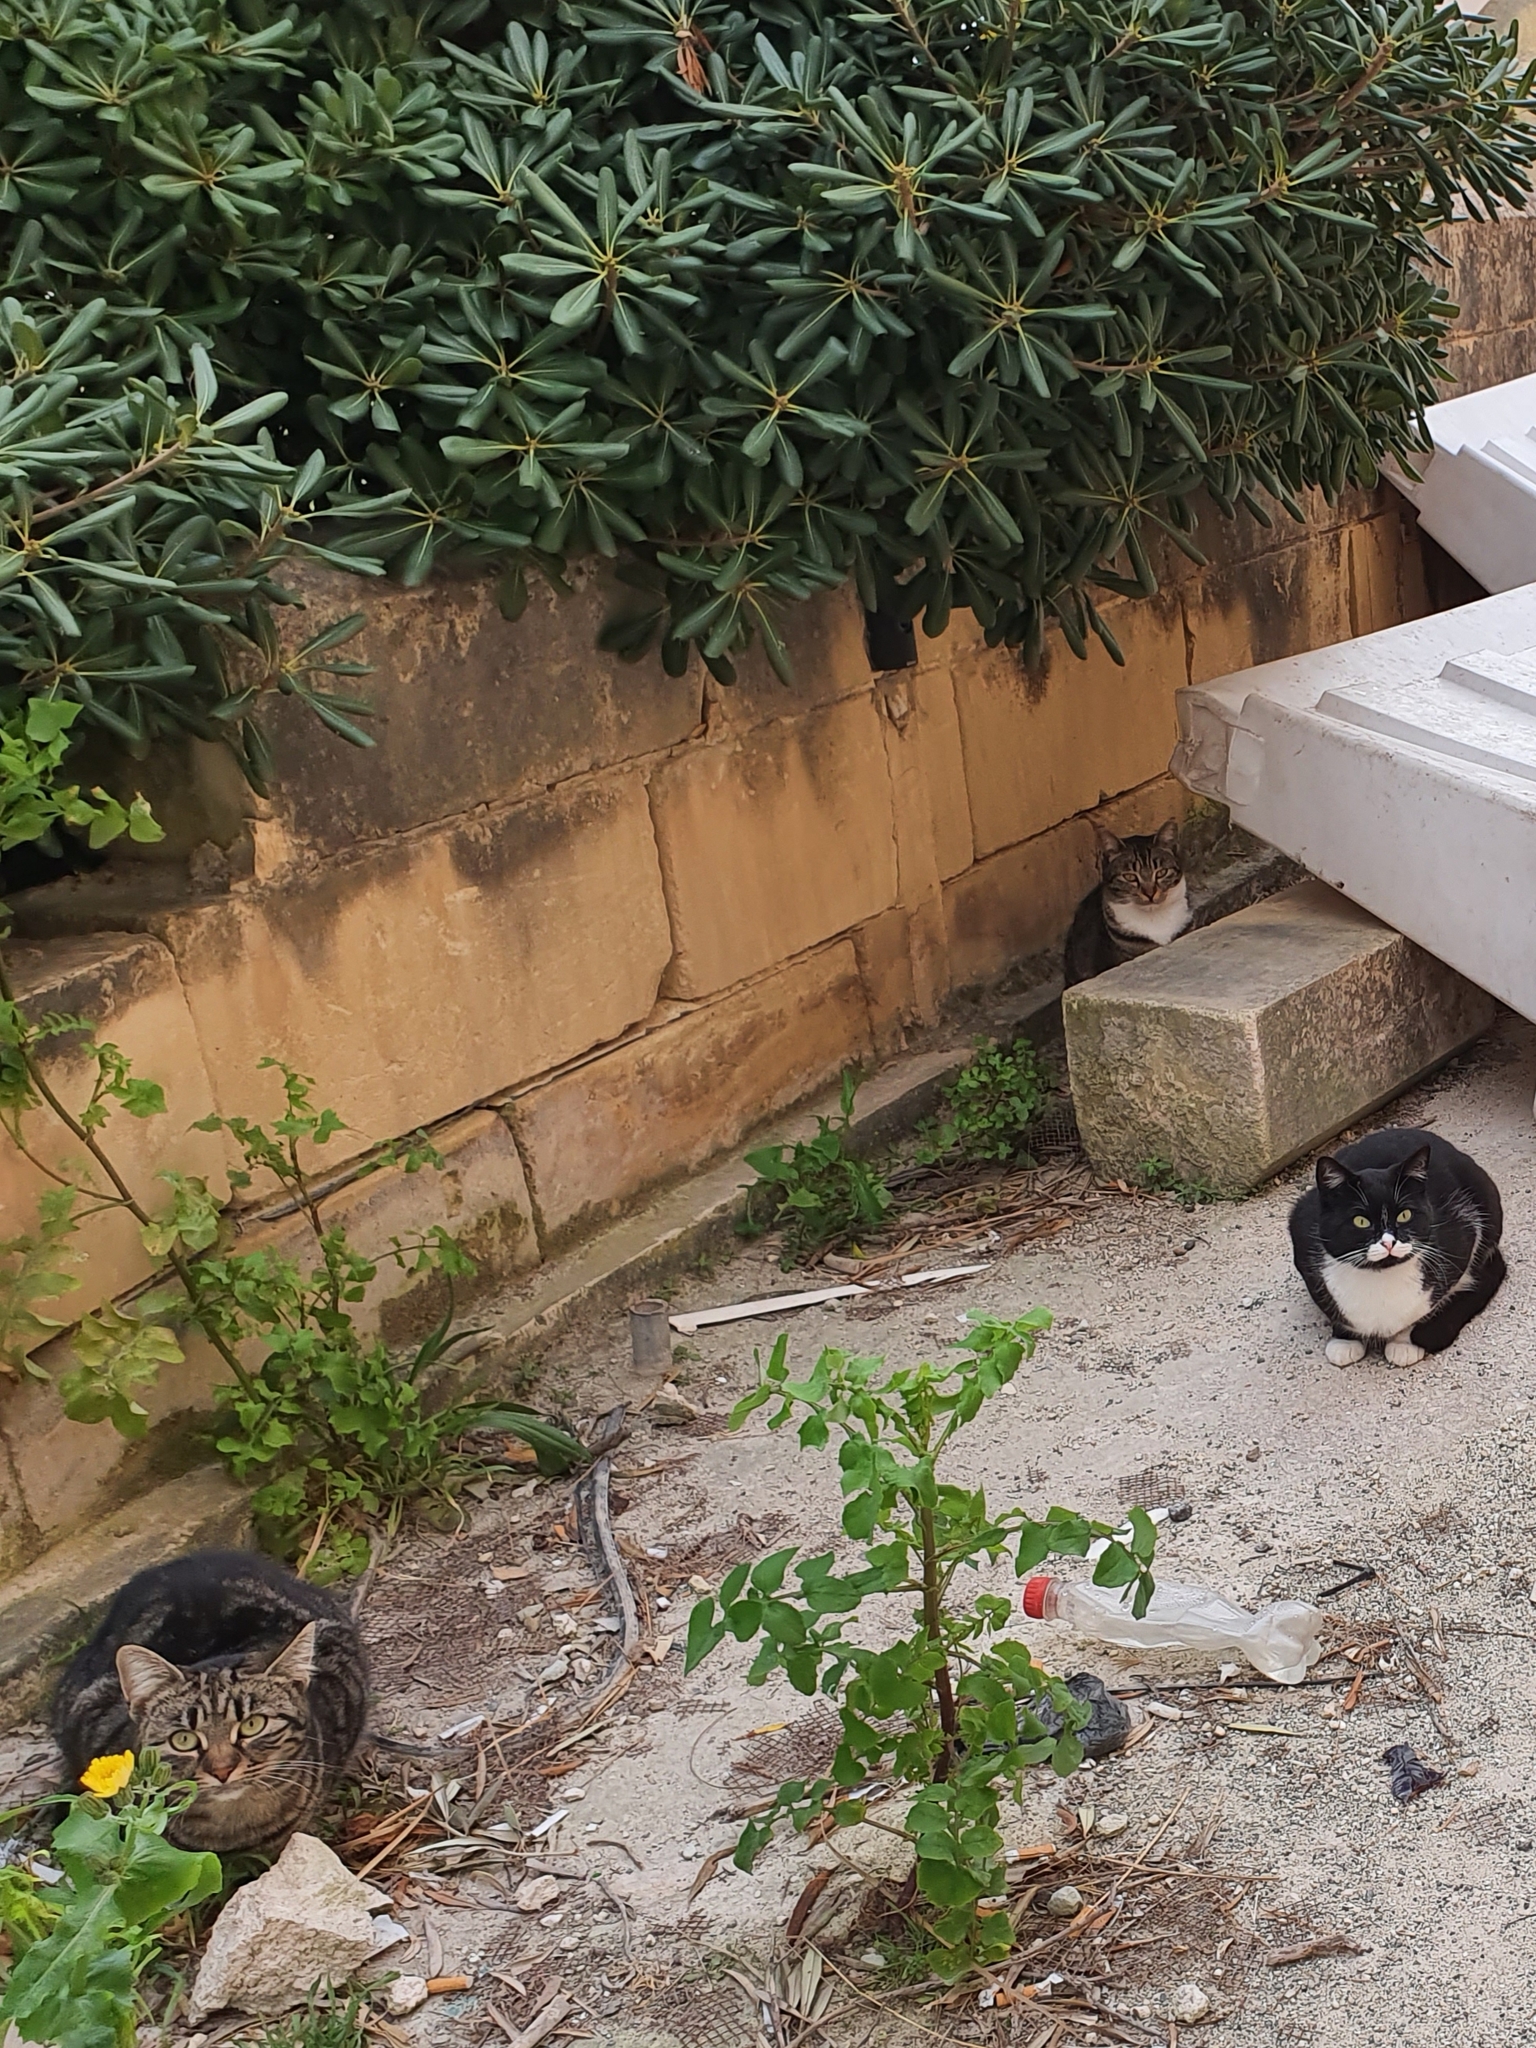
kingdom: Animalia
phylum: Chordata
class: Mammalia
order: Carnivora
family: Felidae
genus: Felis
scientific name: Felis catus
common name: Domestic cat
